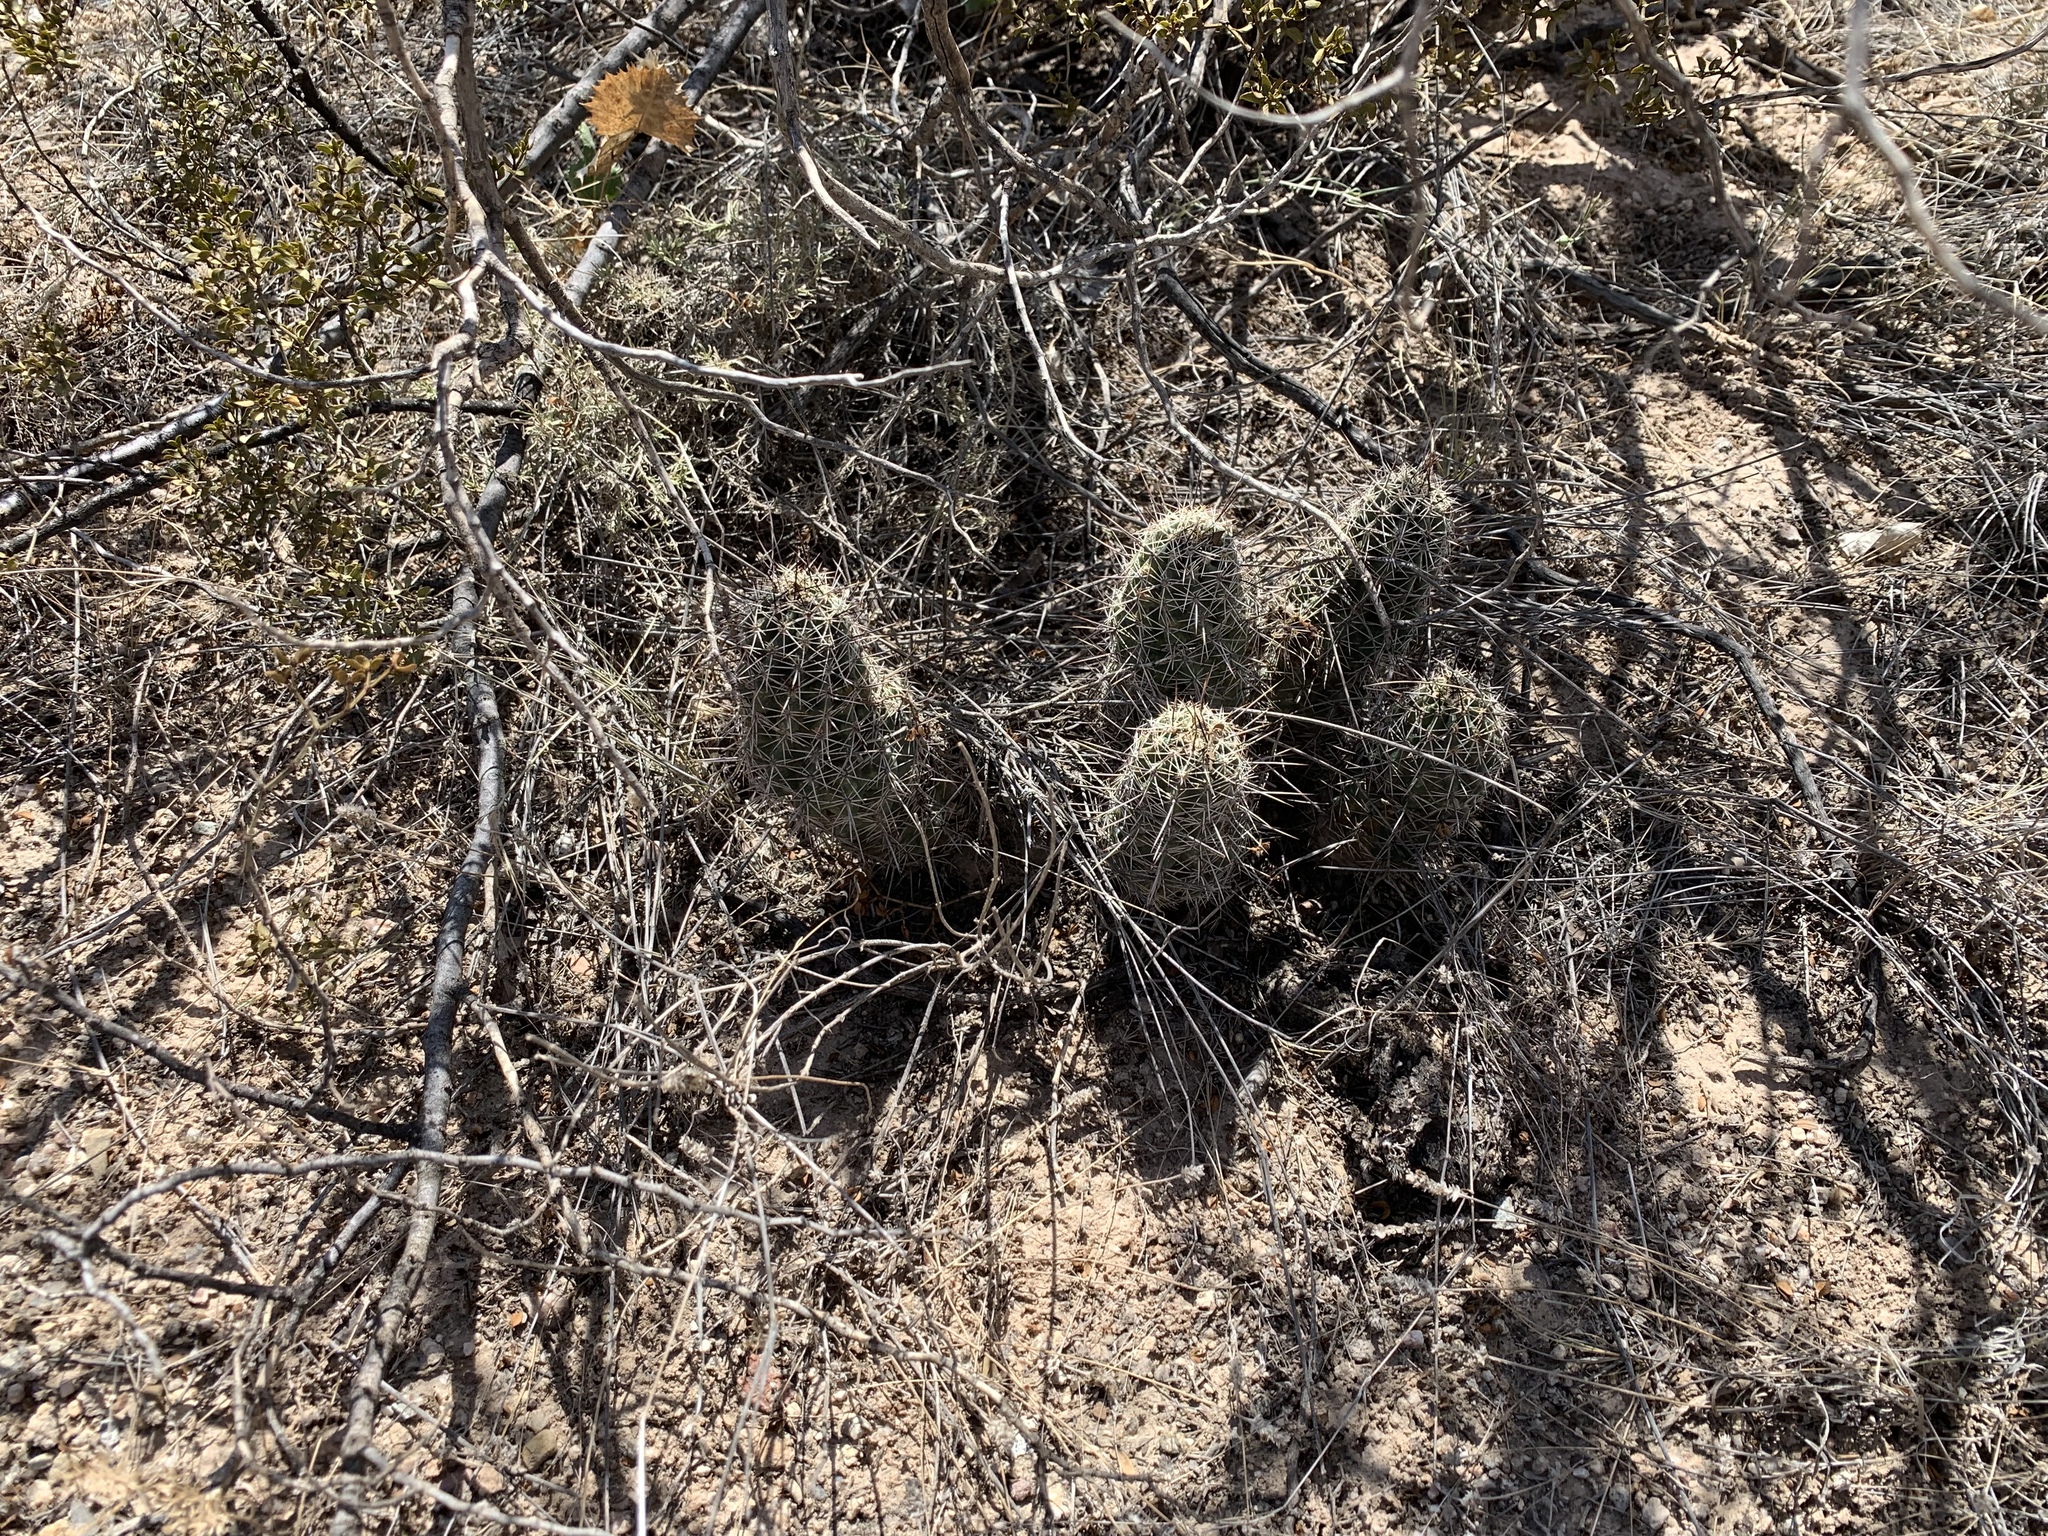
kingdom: Plantae
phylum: Tracheophyta
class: Magnoliopsida
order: Caryophyllales
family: Cactaceae
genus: Echinocereus
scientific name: Echinocereus fasciculatus
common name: Bundle hedgehog
